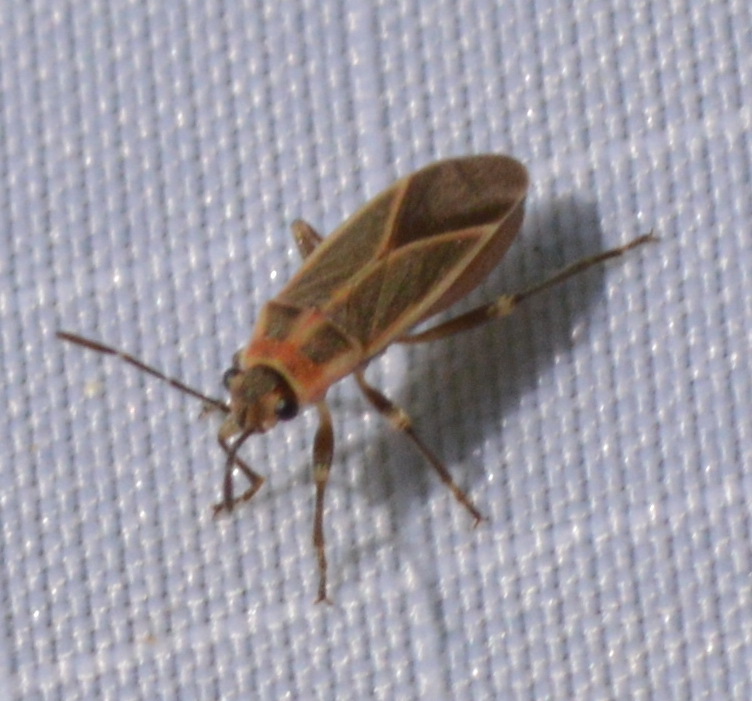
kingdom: Animalia
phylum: Arthropoda
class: Insecta
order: Hemiptera
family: Lygaeidae
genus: Ochrimnus
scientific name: Ochrimnus mimulus
